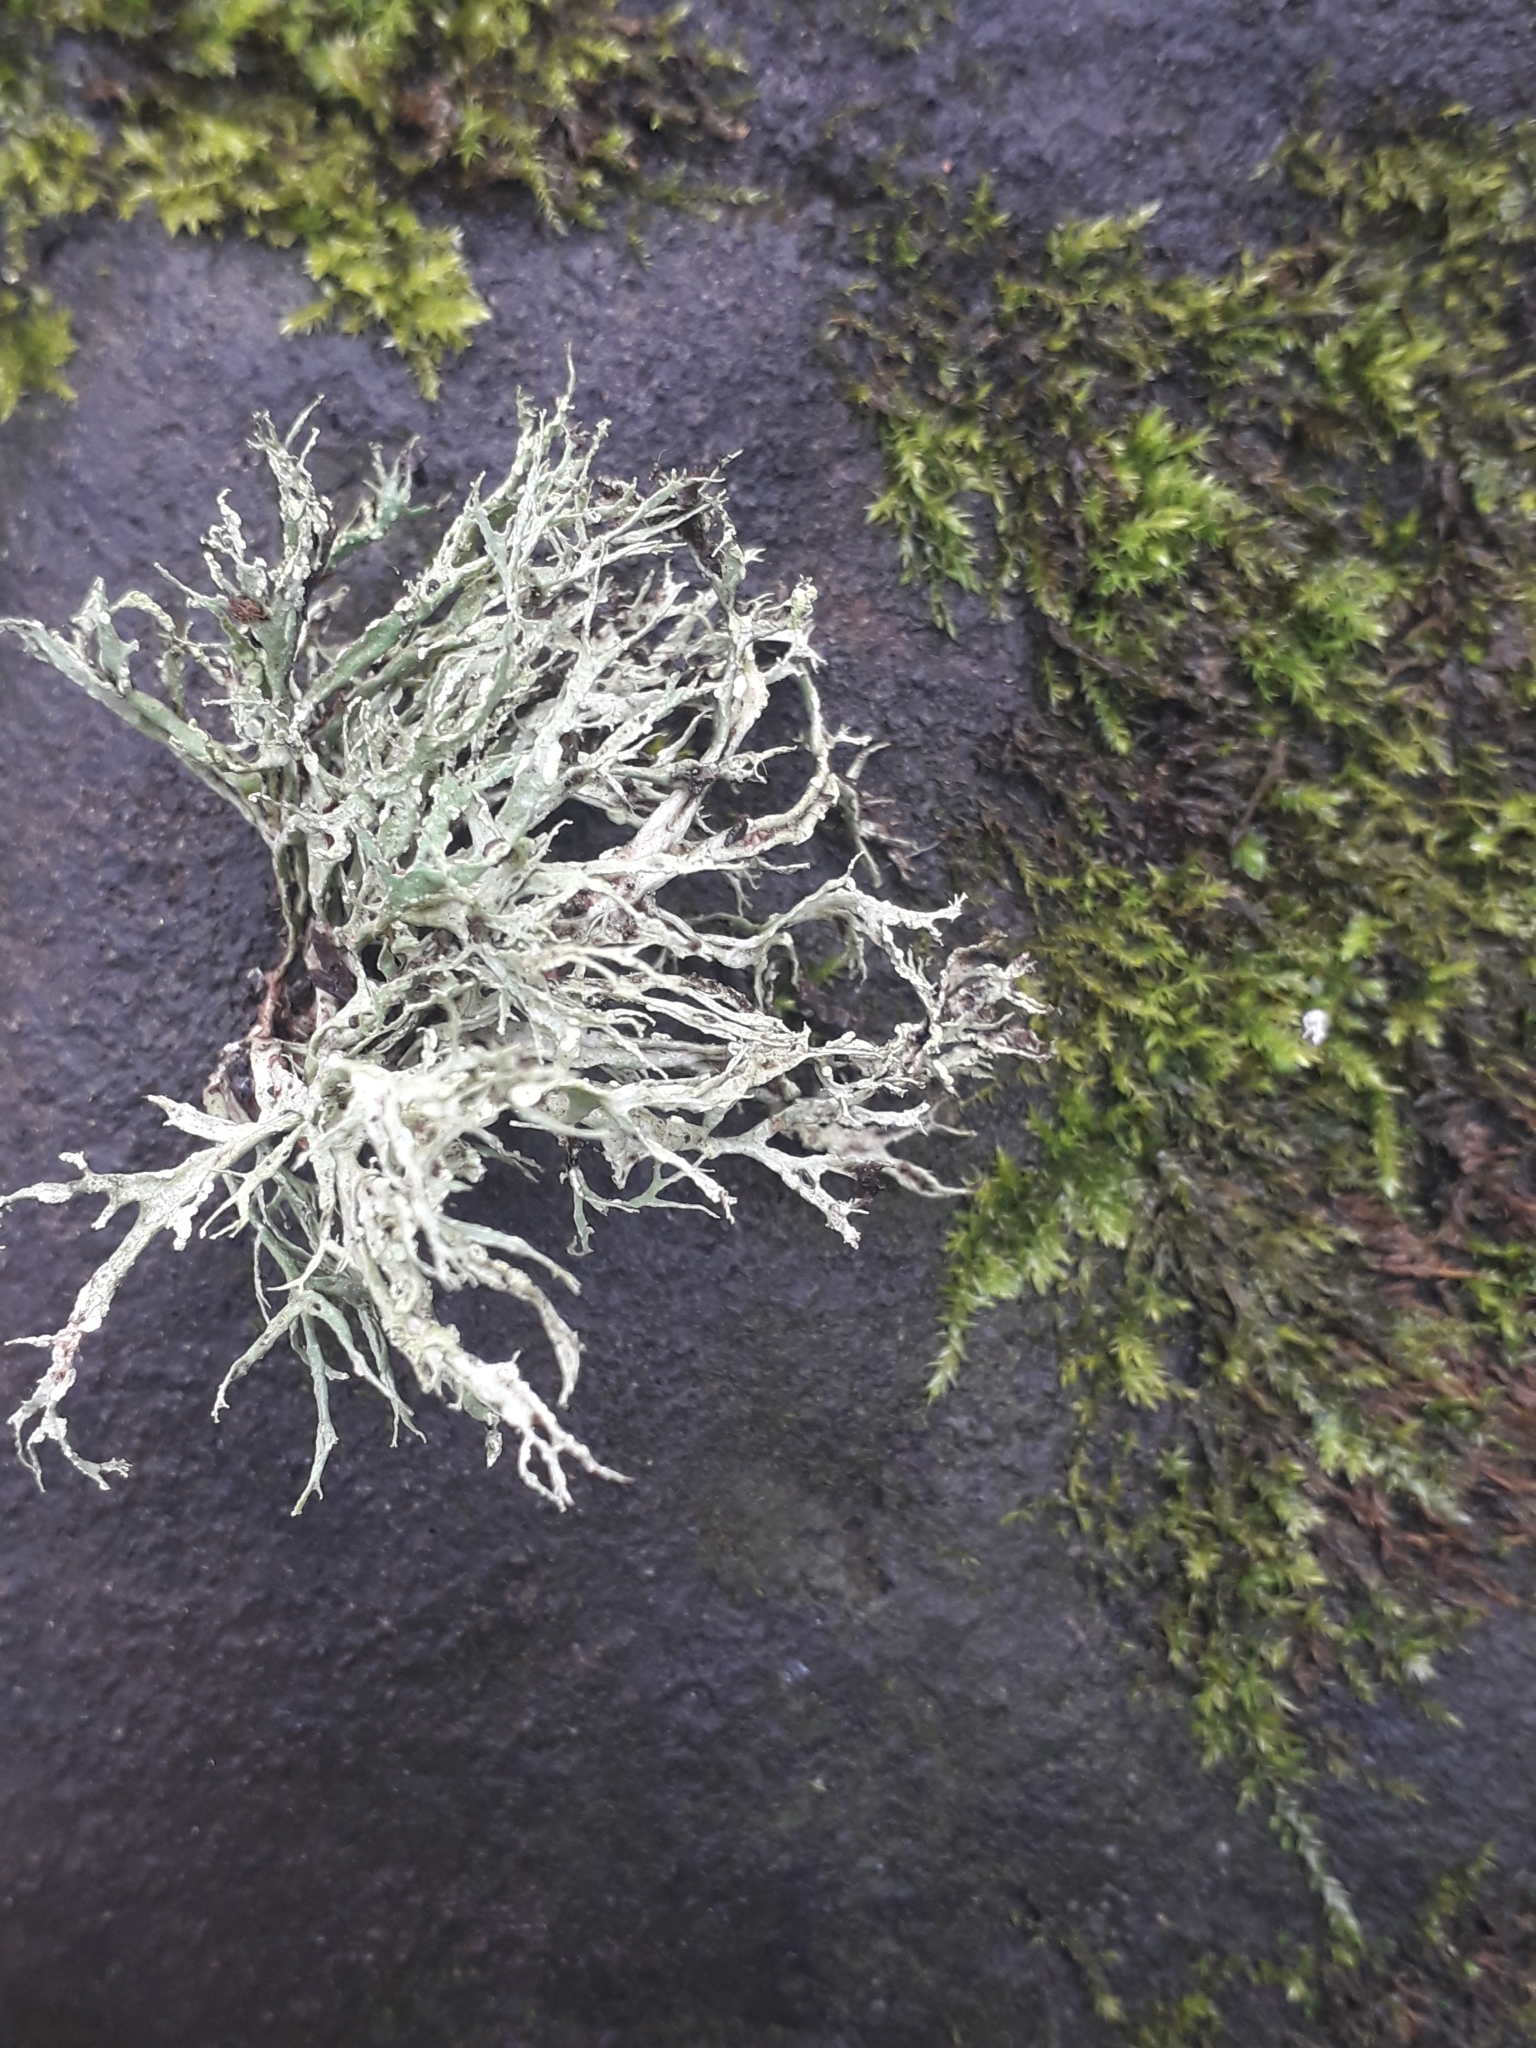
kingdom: Fungi
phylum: Ascomycota
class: Lecanoromycetes
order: Lecanorales
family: Ramalinaceae
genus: Ramalina
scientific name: Ramalina farinacea
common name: Farinose cartilage lichen
